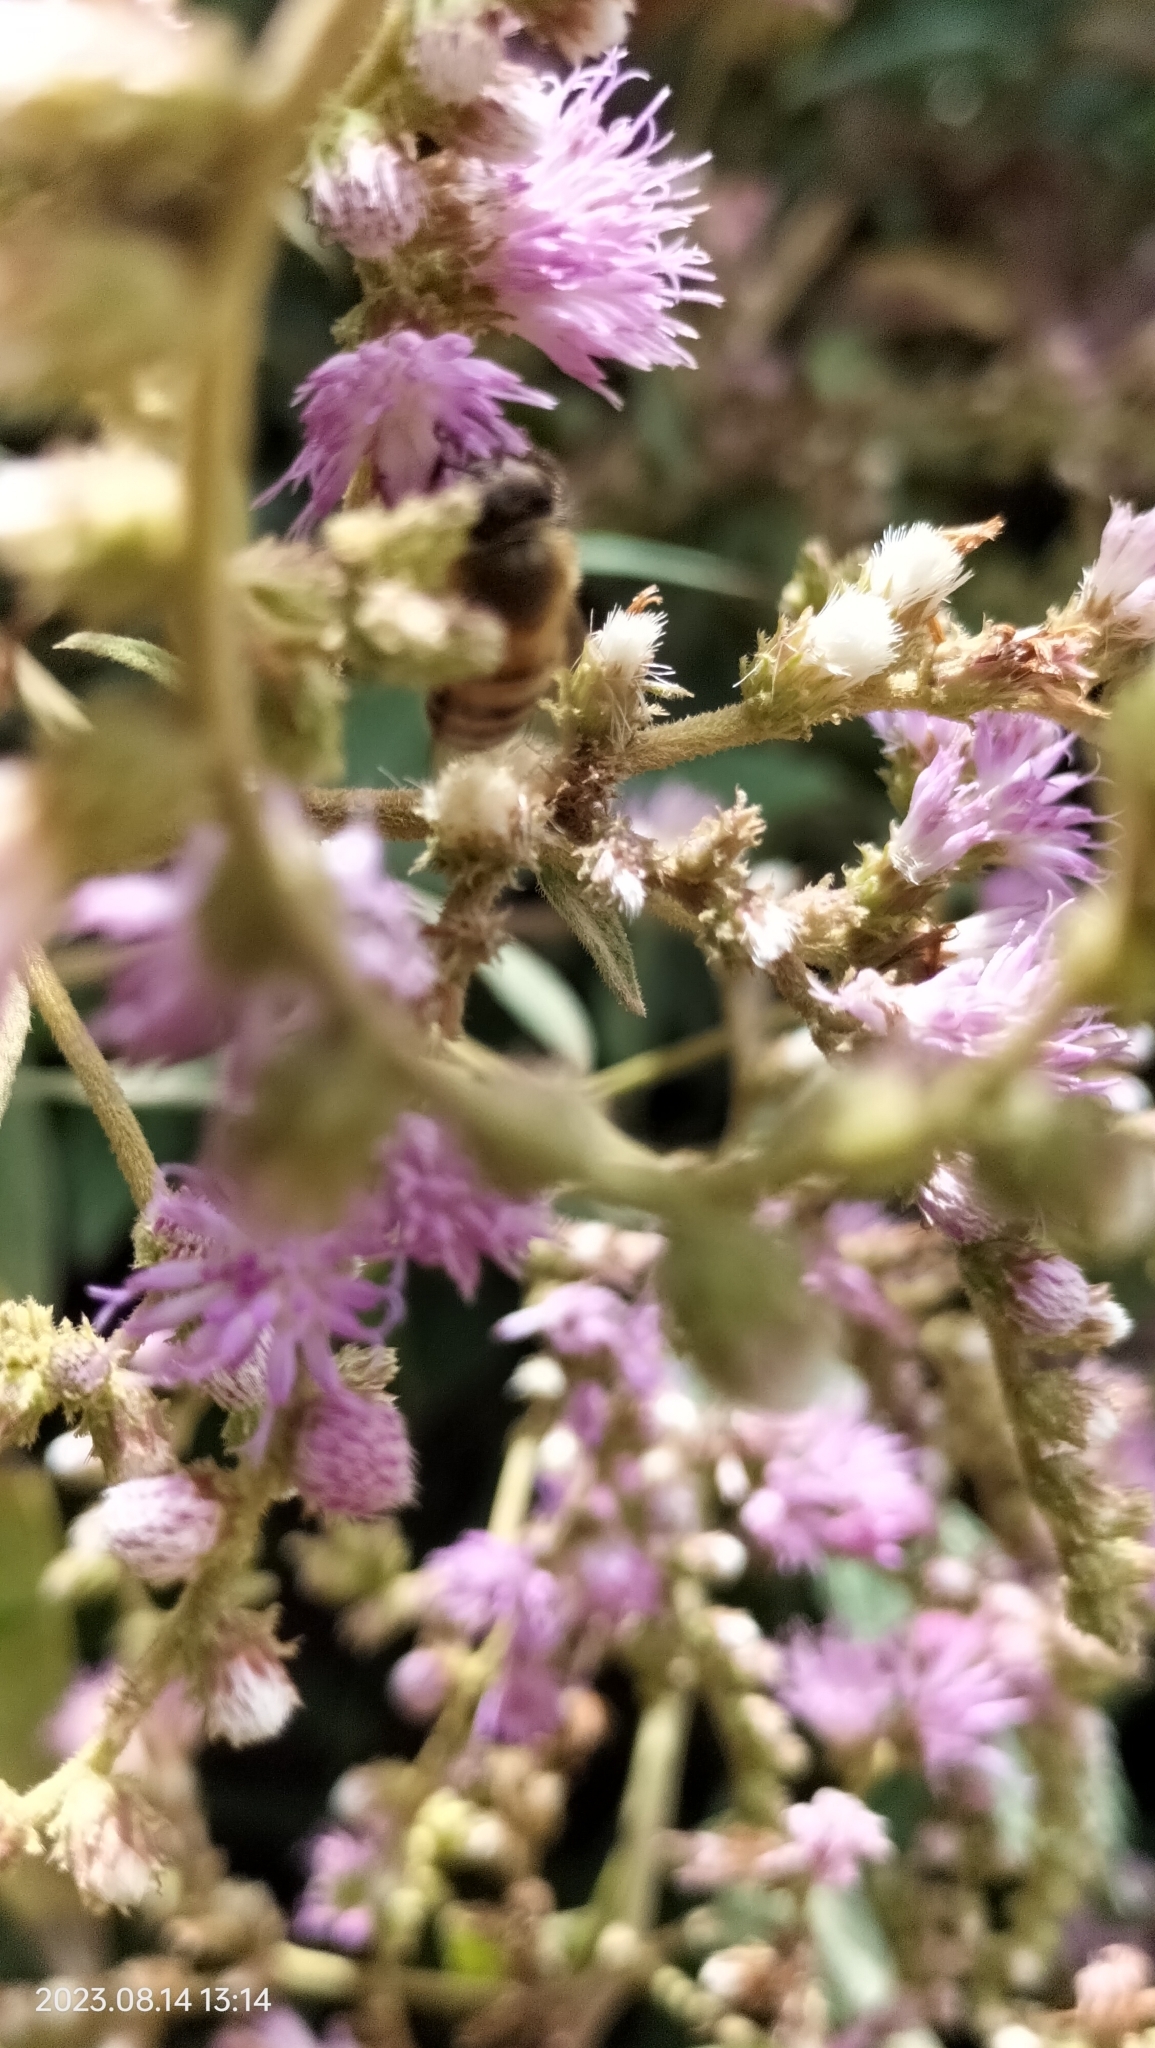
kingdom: Animalia
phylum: Arthropoda
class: Insecta
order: Hymenoptera
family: Apidae
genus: Apis
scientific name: Apis mellifera
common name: Honey bee
